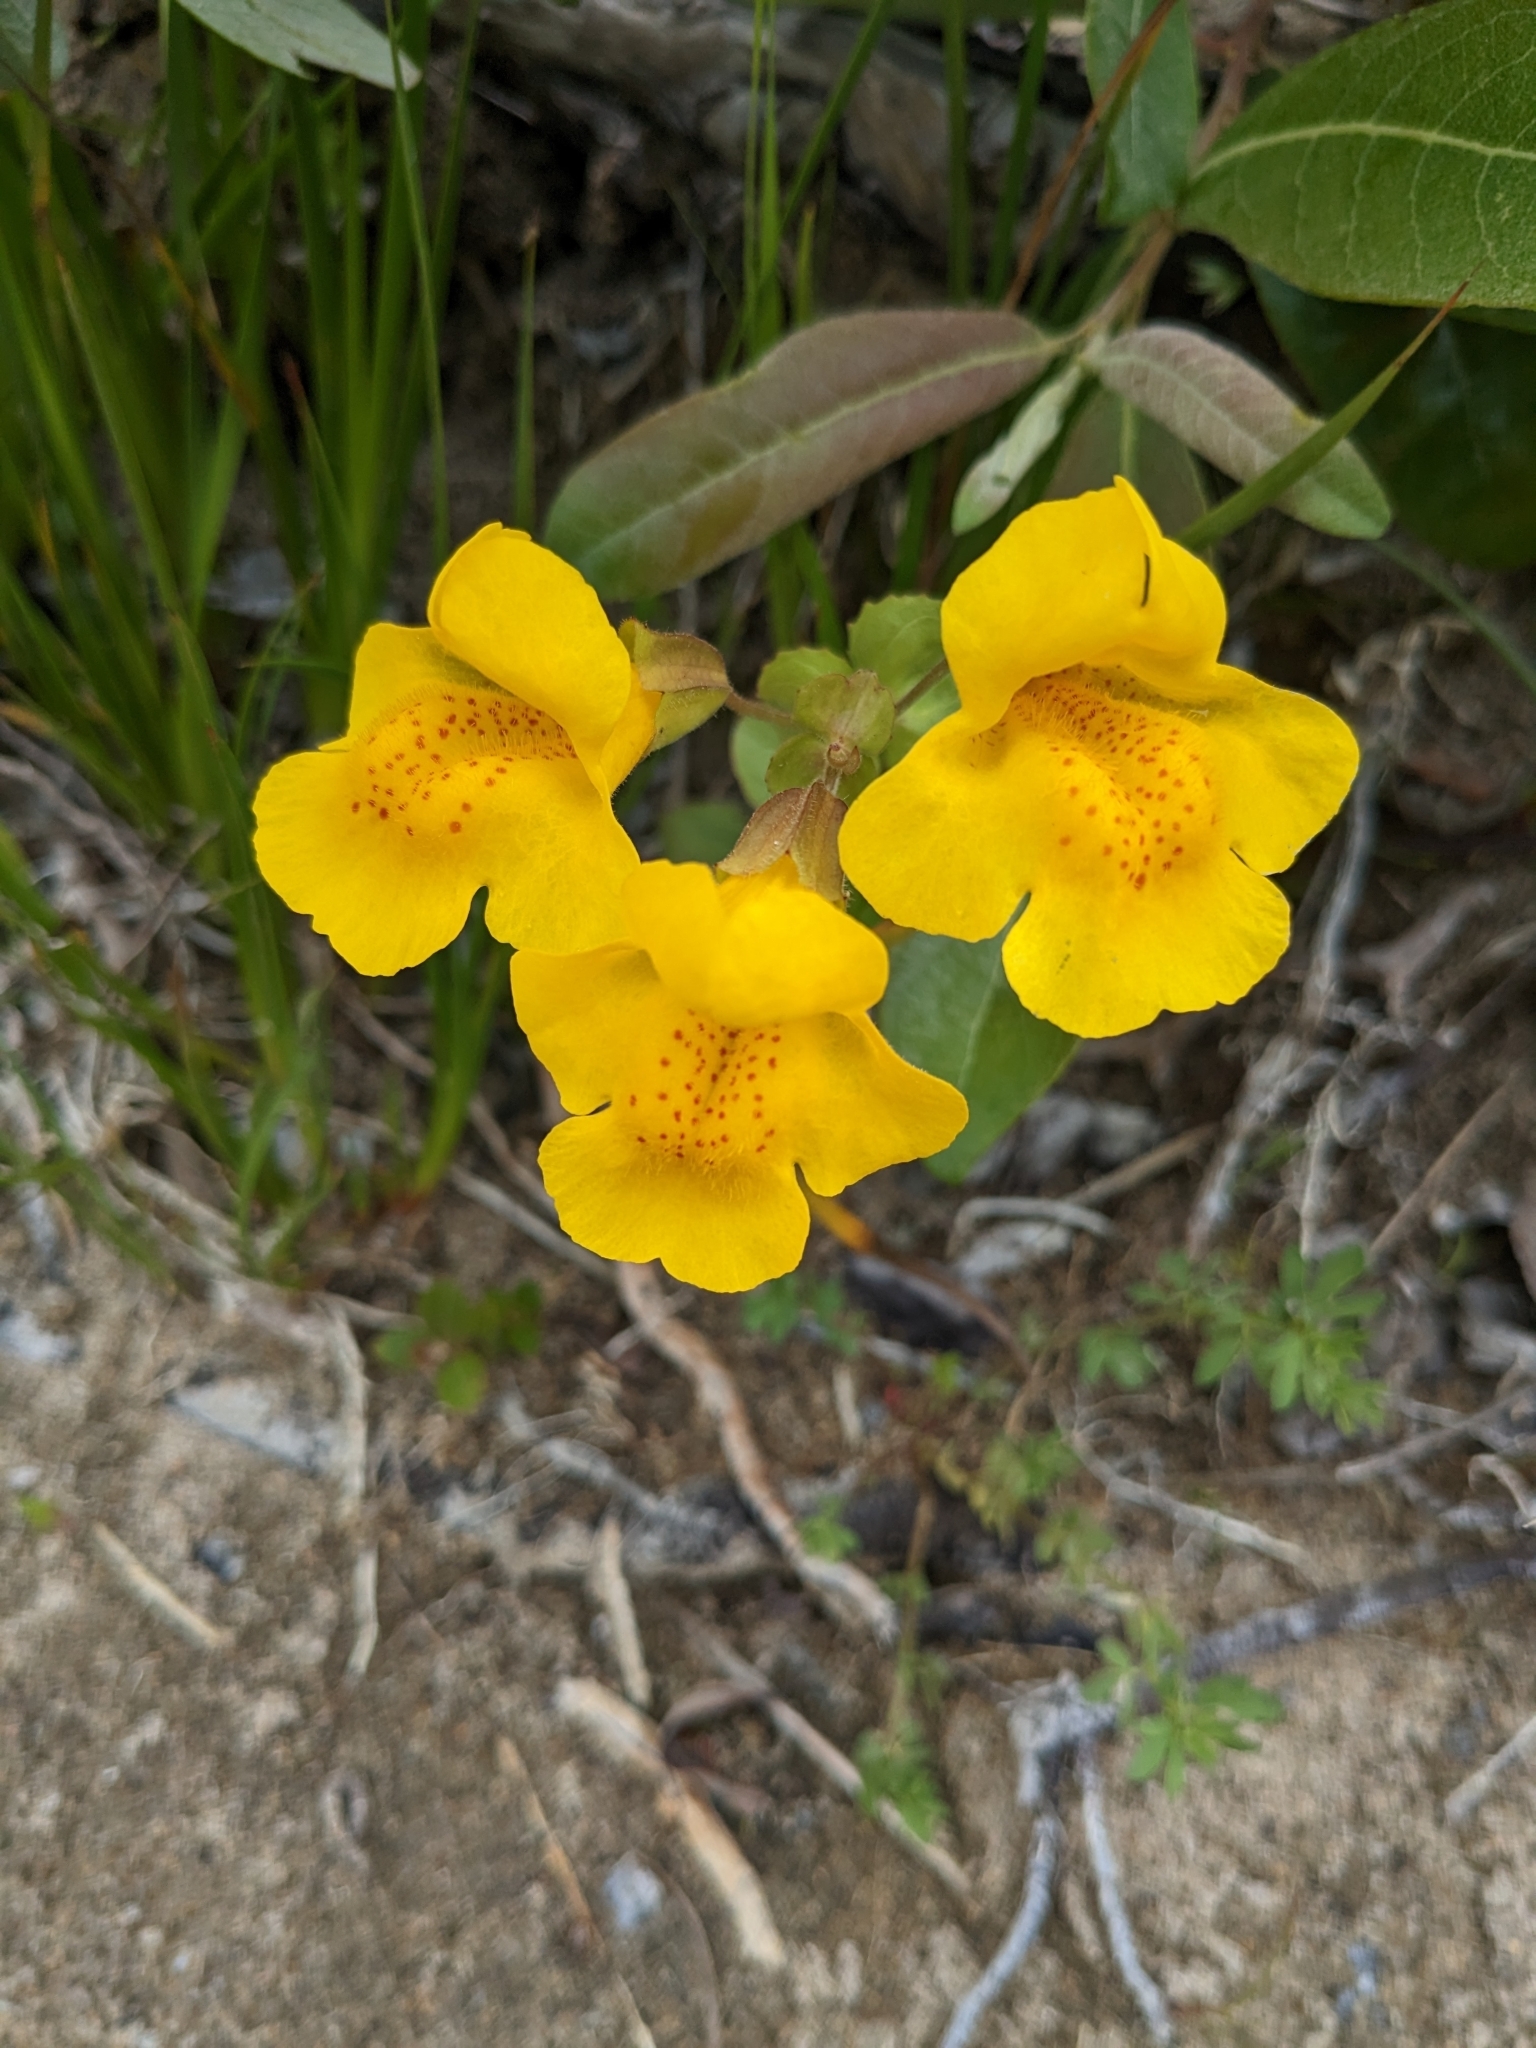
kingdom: Plantae
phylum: Tracheophyta
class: Magnoliopsida
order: Lamiales
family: Phrymaceae
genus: Erythranthe
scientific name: Erythranthe grandis
